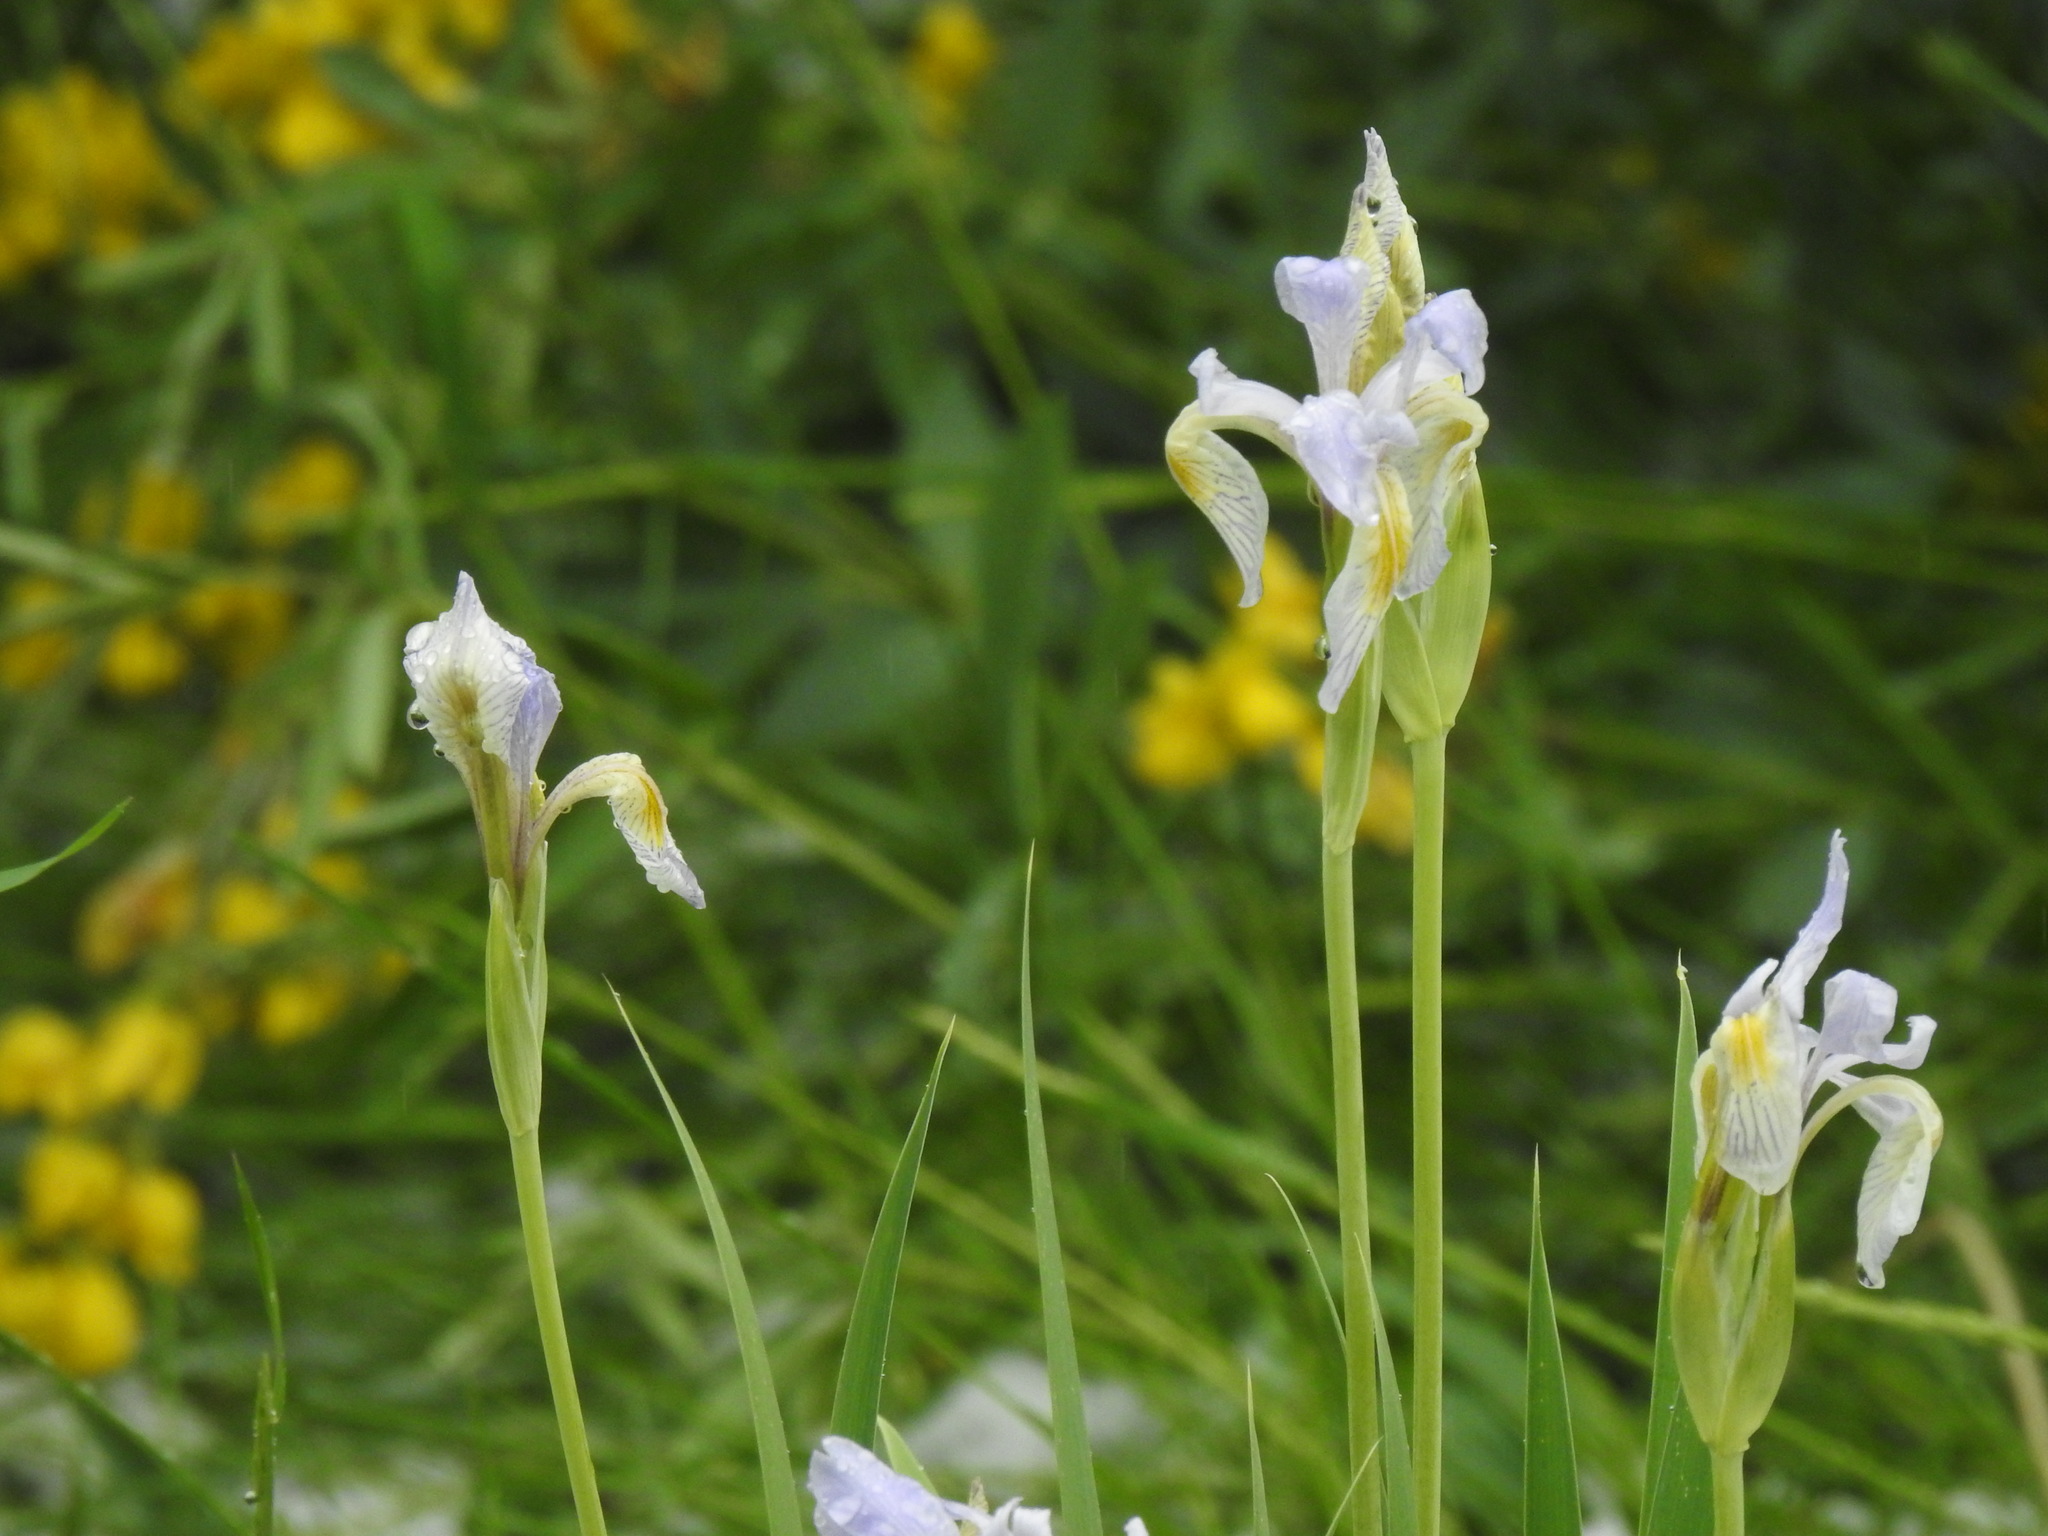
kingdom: Plantae
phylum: Tracheophyta
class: Liliopsida
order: Asparagales
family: Iridaceae
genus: Iris
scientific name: Iris missouriensis
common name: Rocky mountain iris
